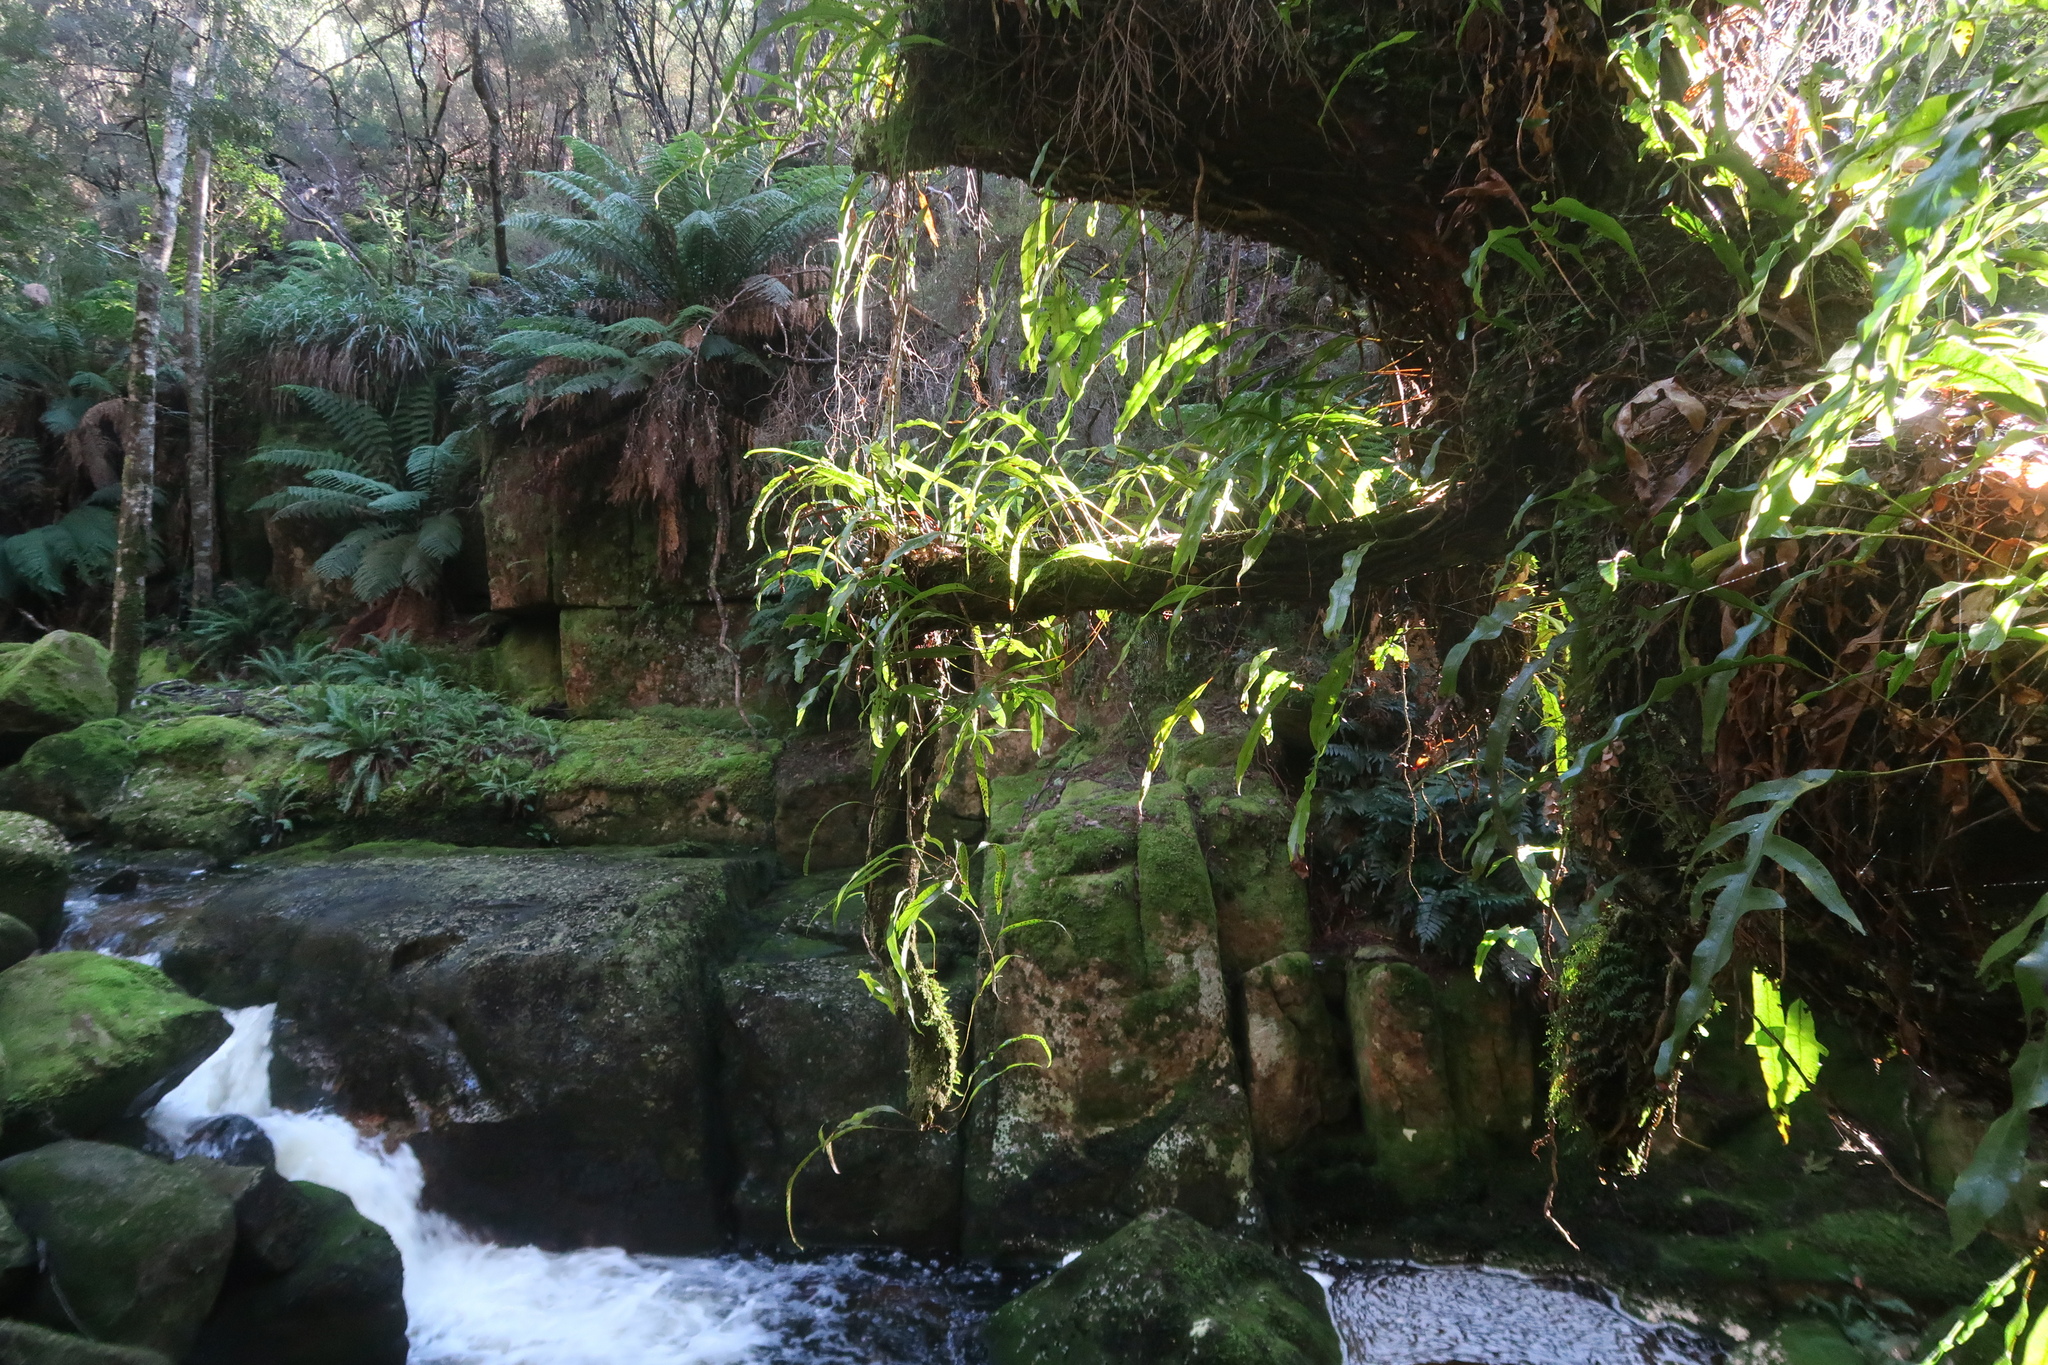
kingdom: Plantae
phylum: Tracheophyta
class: Polypodiopsida
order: Polypodiales
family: Polypodiaceae
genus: Lecanopteris
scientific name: Lecanopteris pustulata
